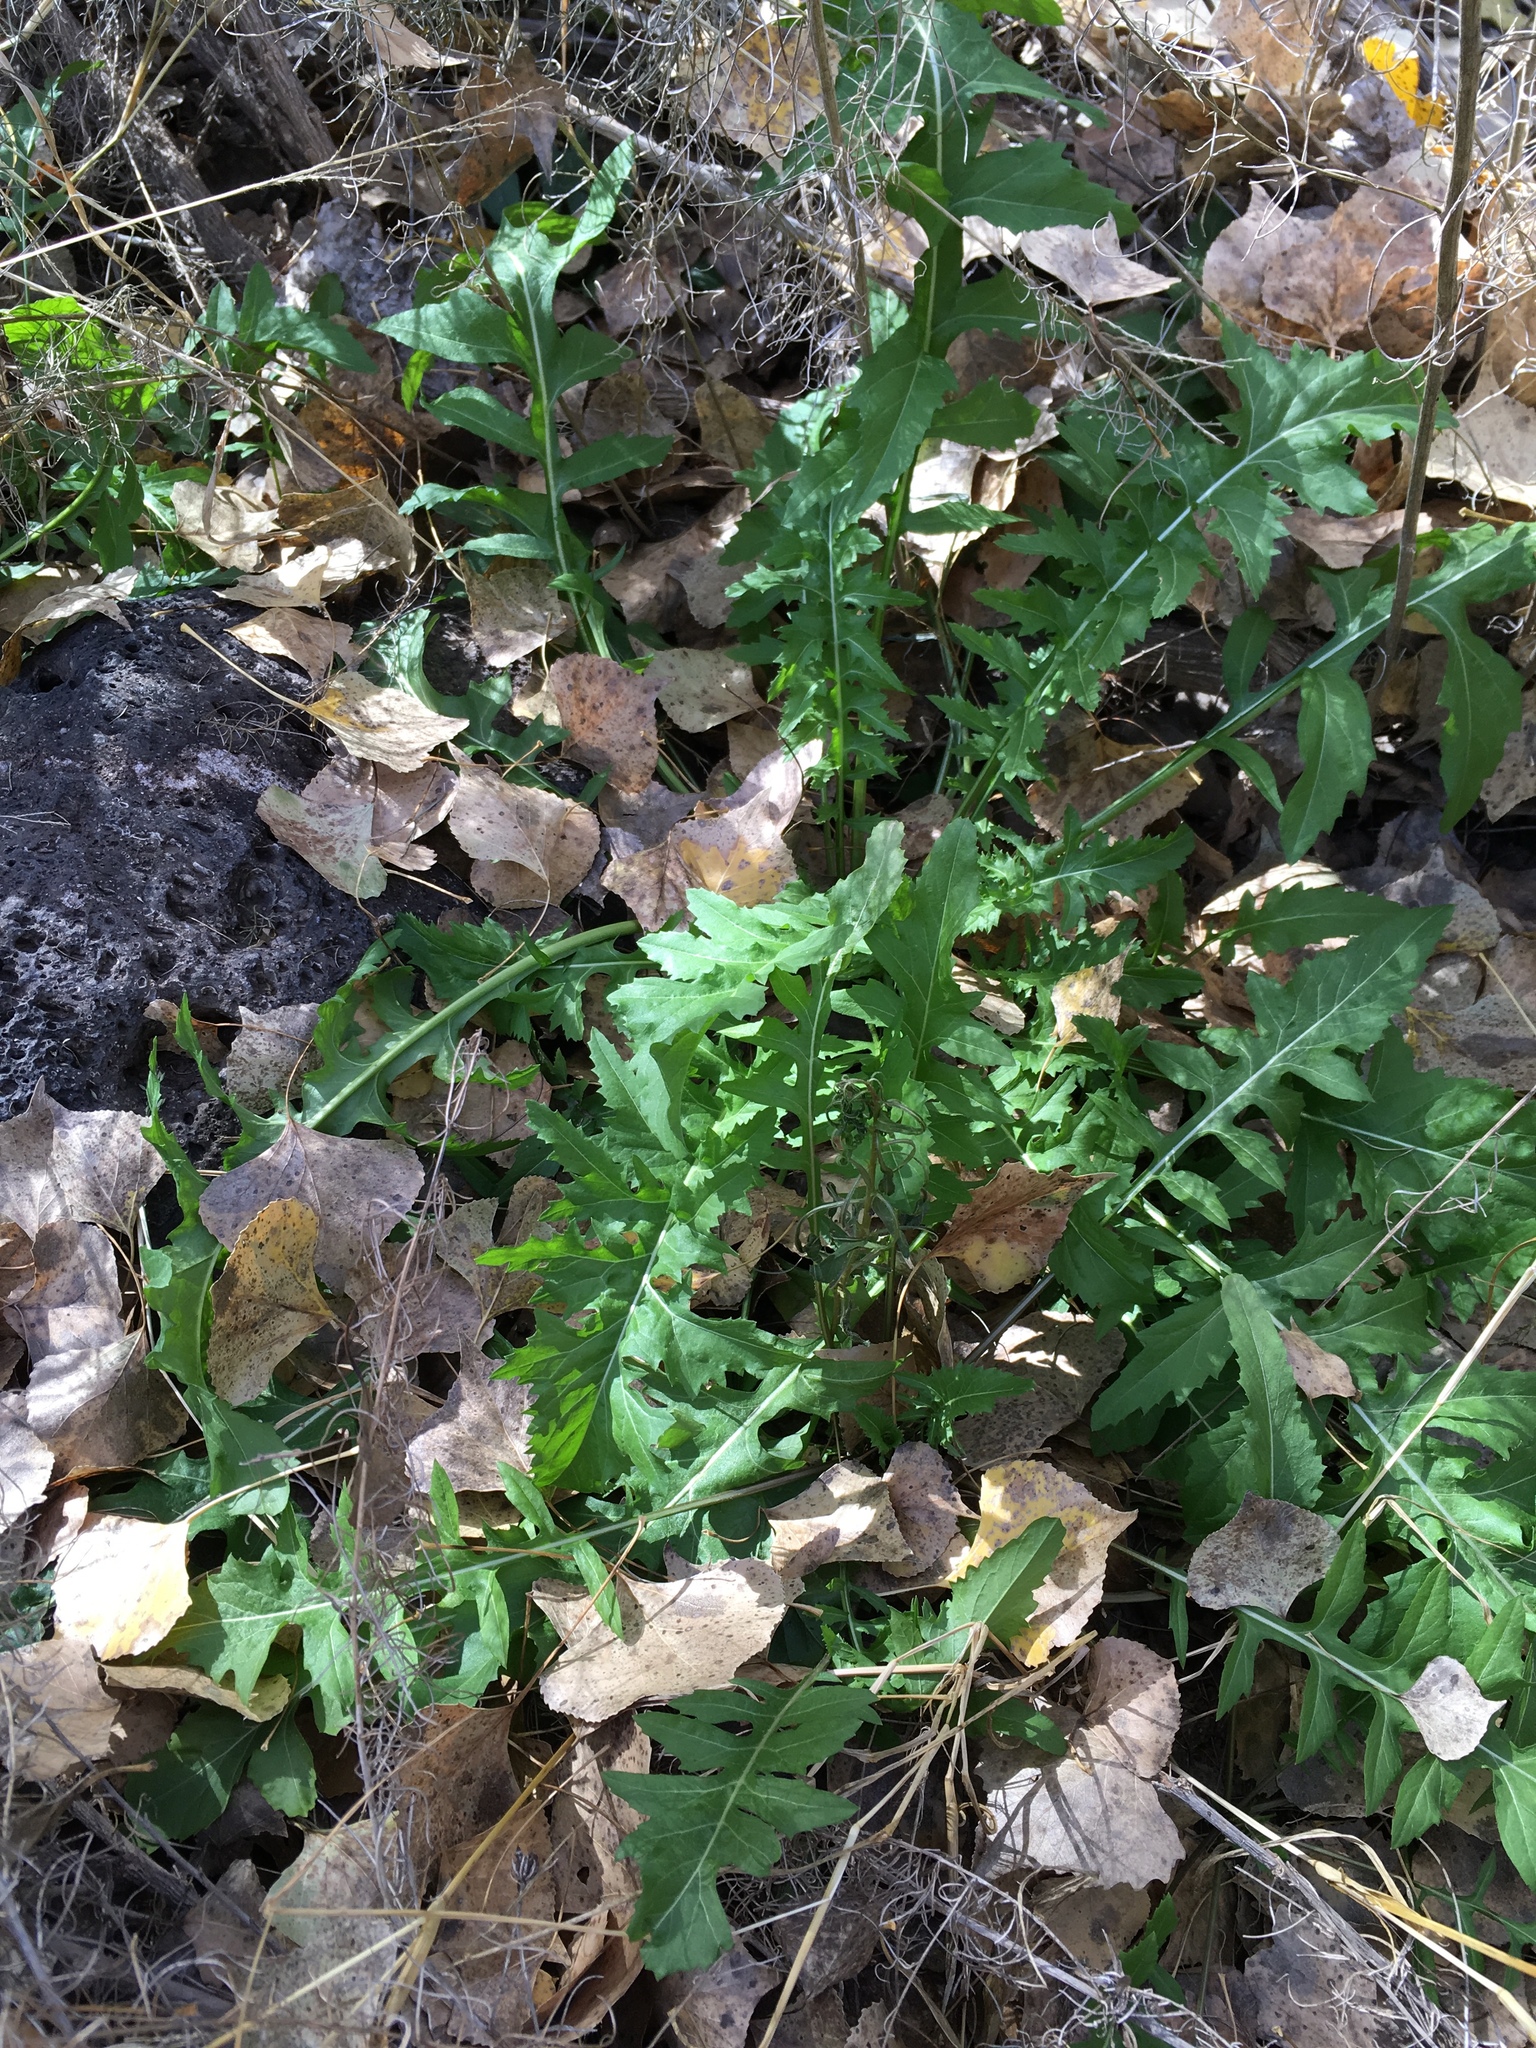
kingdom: Plantae
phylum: Tracheophyta
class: Magnoliopsida
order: Brassicales
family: Brassicaceae
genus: Sisymbrium
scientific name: Sisymbrium irio
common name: London rocket
